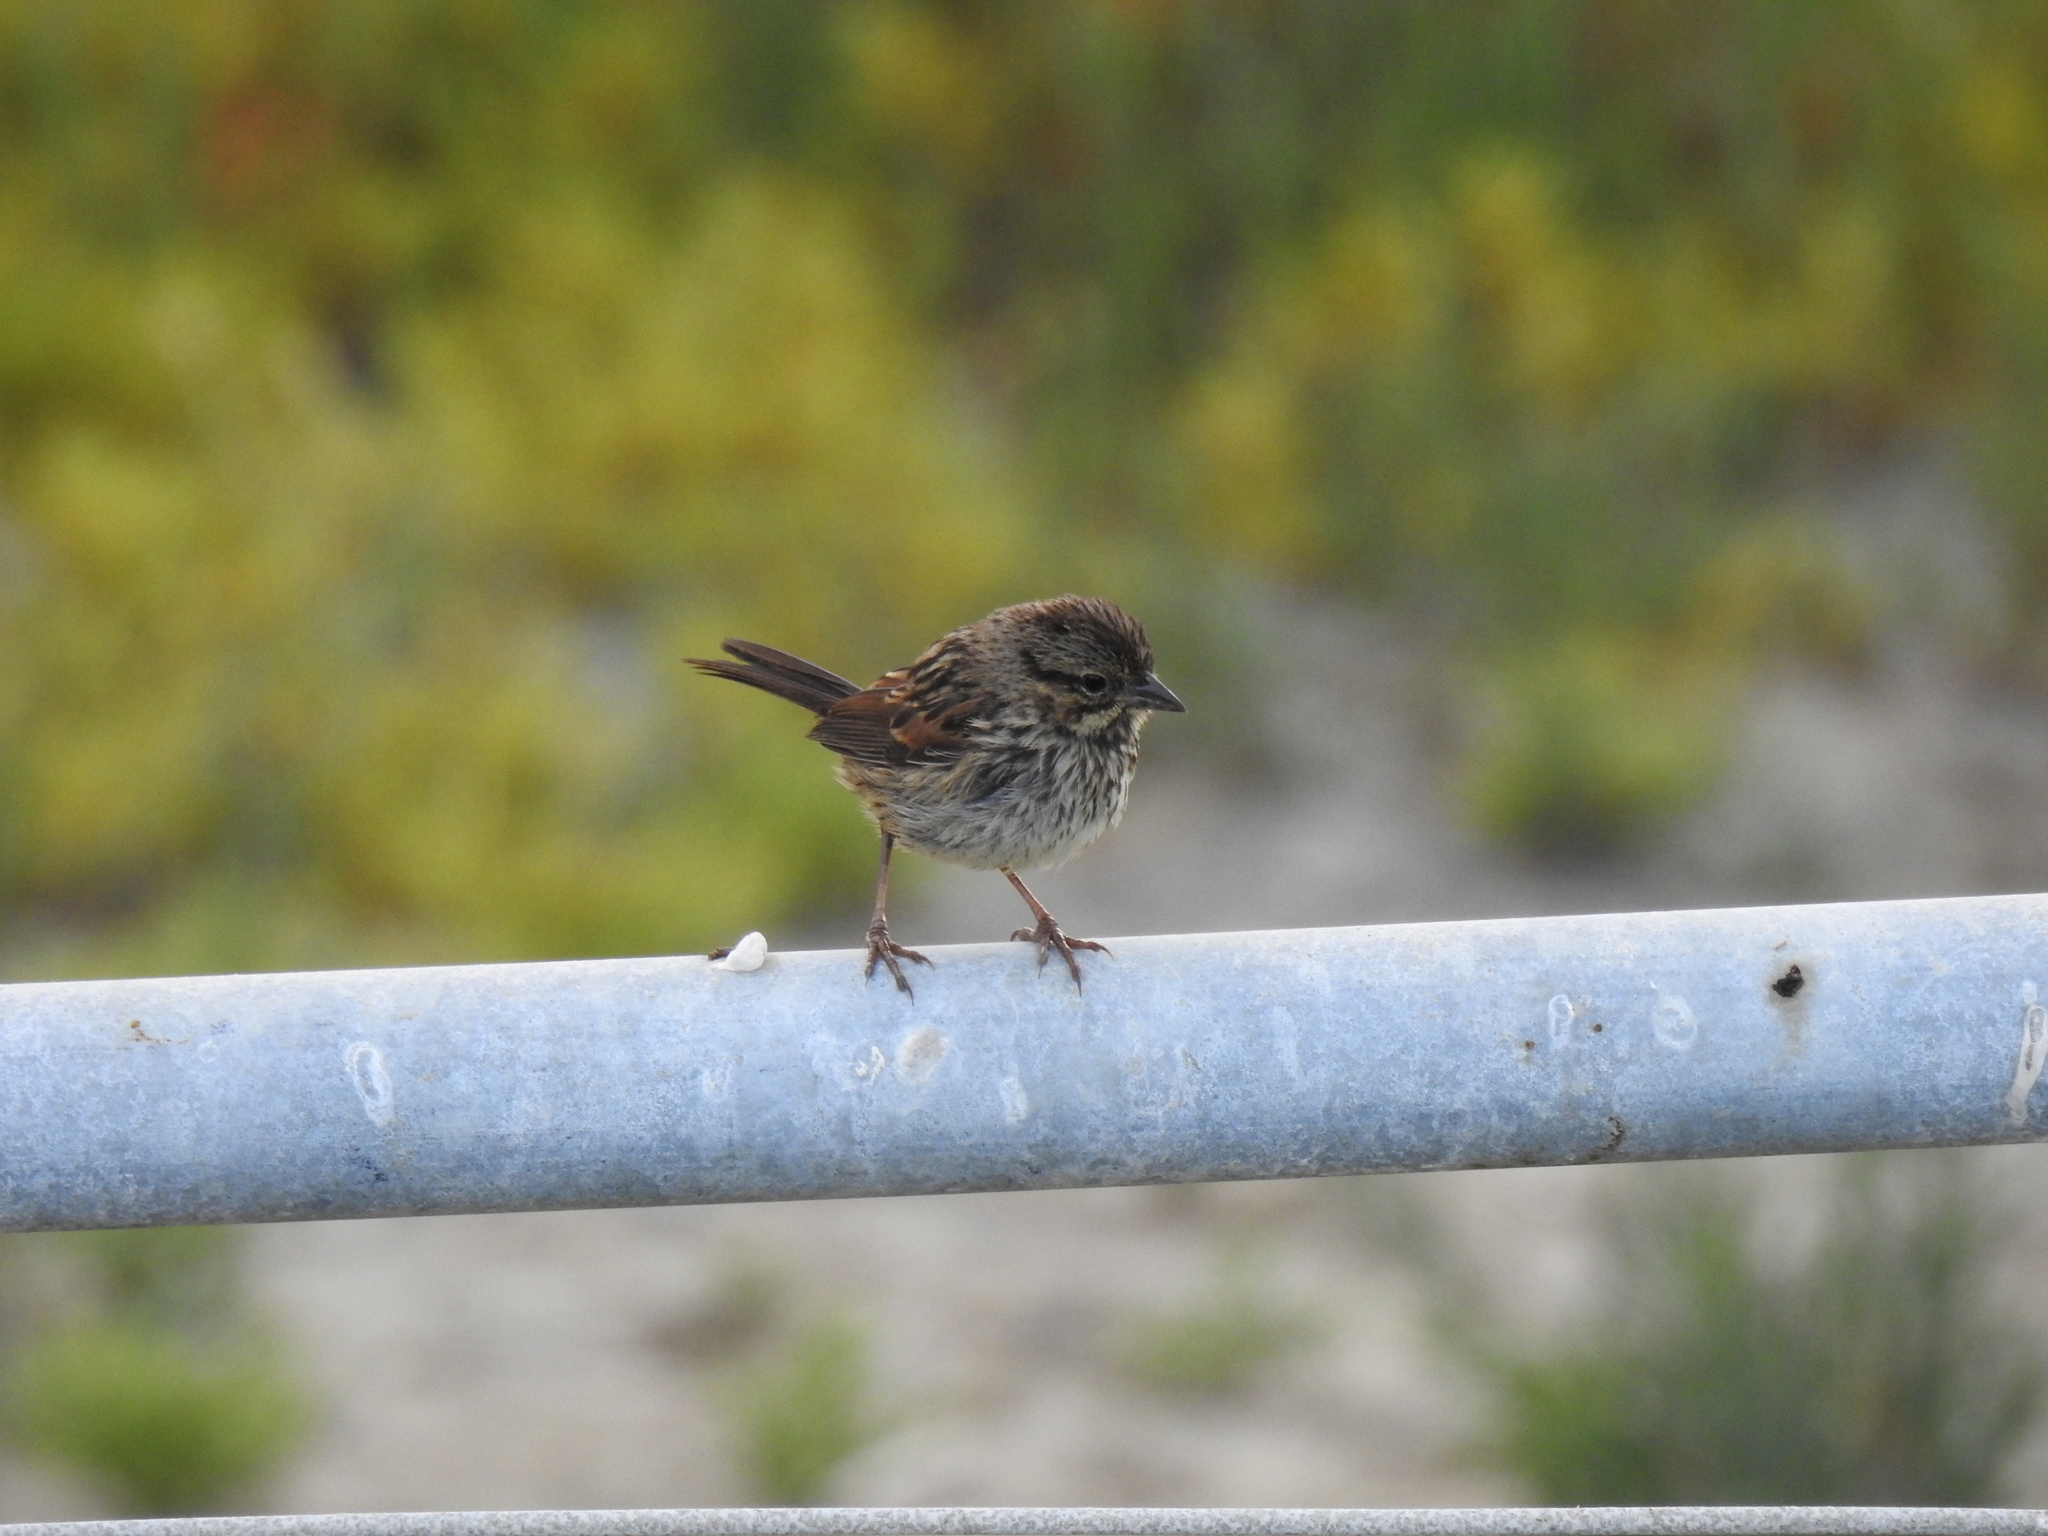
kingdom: Animalia
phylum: Chordata
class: Aves
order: Passeriformes
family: Passerellidae
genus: Melospiza
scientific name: Melospiza melodia
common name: Song sparrow
